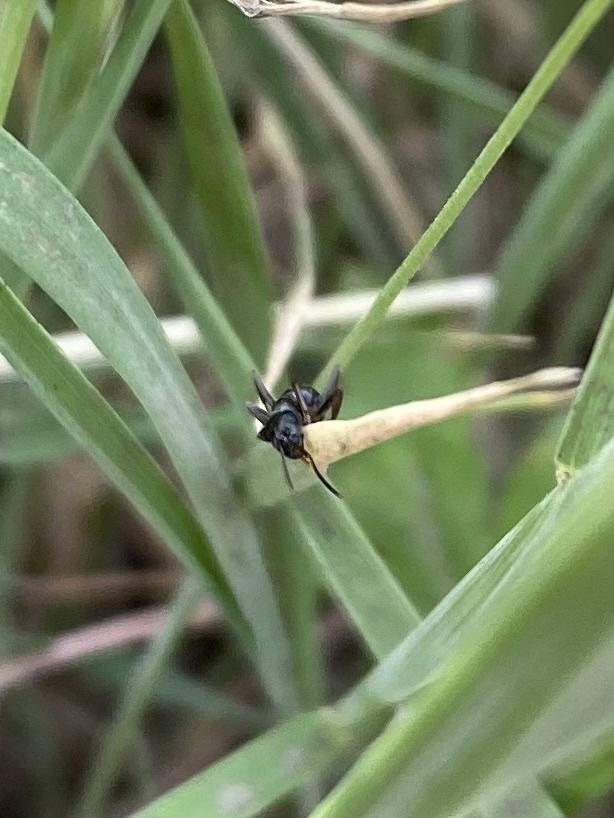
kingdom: Animalia
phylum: Arthropoda
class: Insecta
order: Hymenoptera
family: Formicidae
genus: Formica
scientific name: Formica
